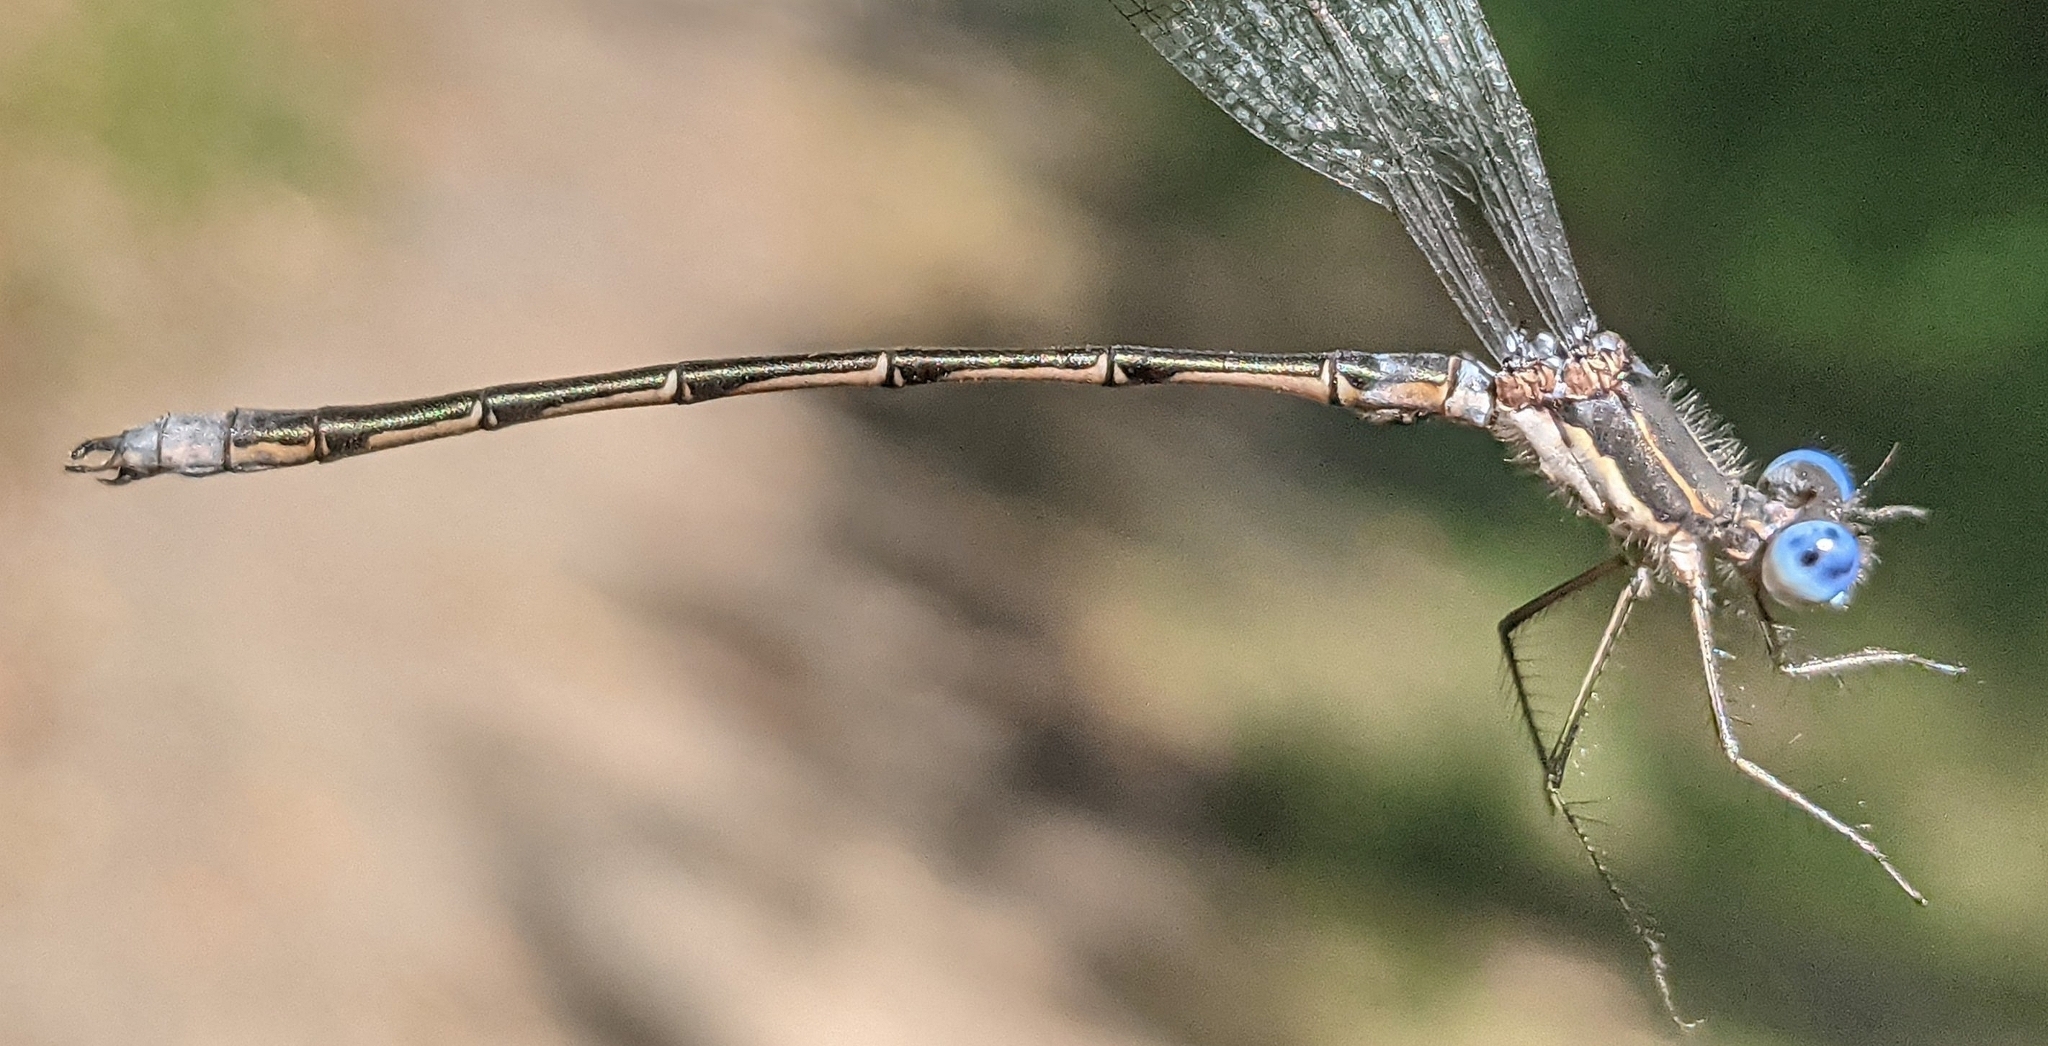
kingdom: Animalia
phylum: Arthropoda
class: Insecta
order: Odonata
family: Lestidae
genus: Lestes
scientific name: Lestes congener
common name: Spotted spreadwing
